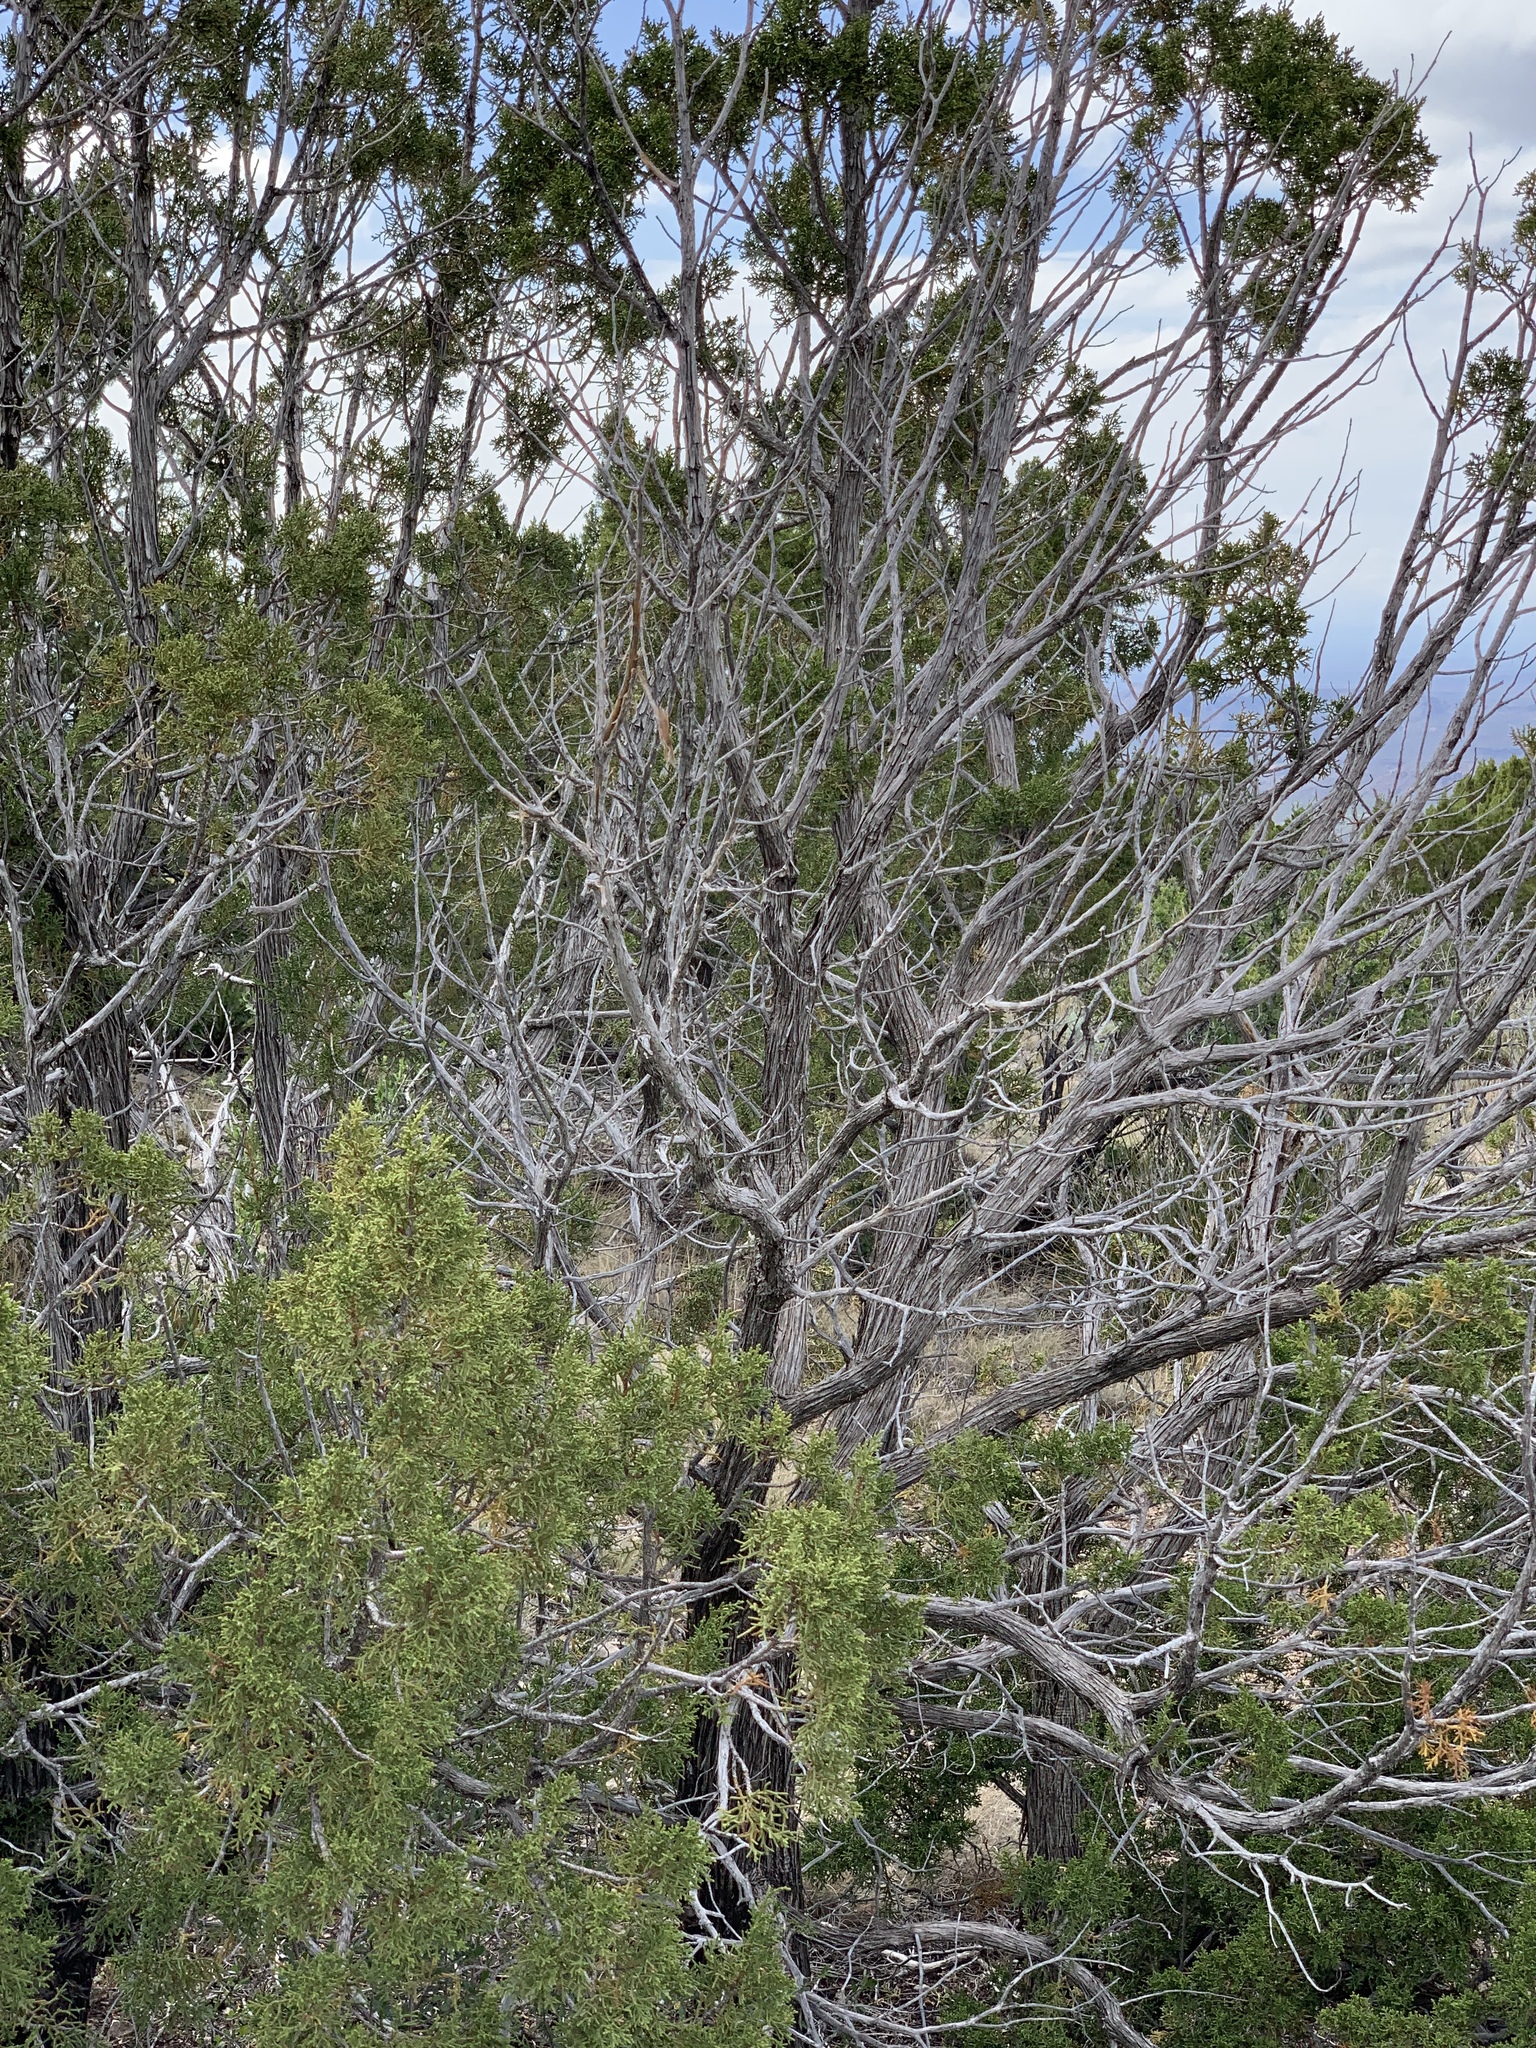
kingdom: Plantae
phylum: Tracheophyta
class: Pinopsida
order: Pinales
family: Cupressaceae
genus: Juniperus
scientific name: Juniperus monosperma
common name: One-seed juniper
